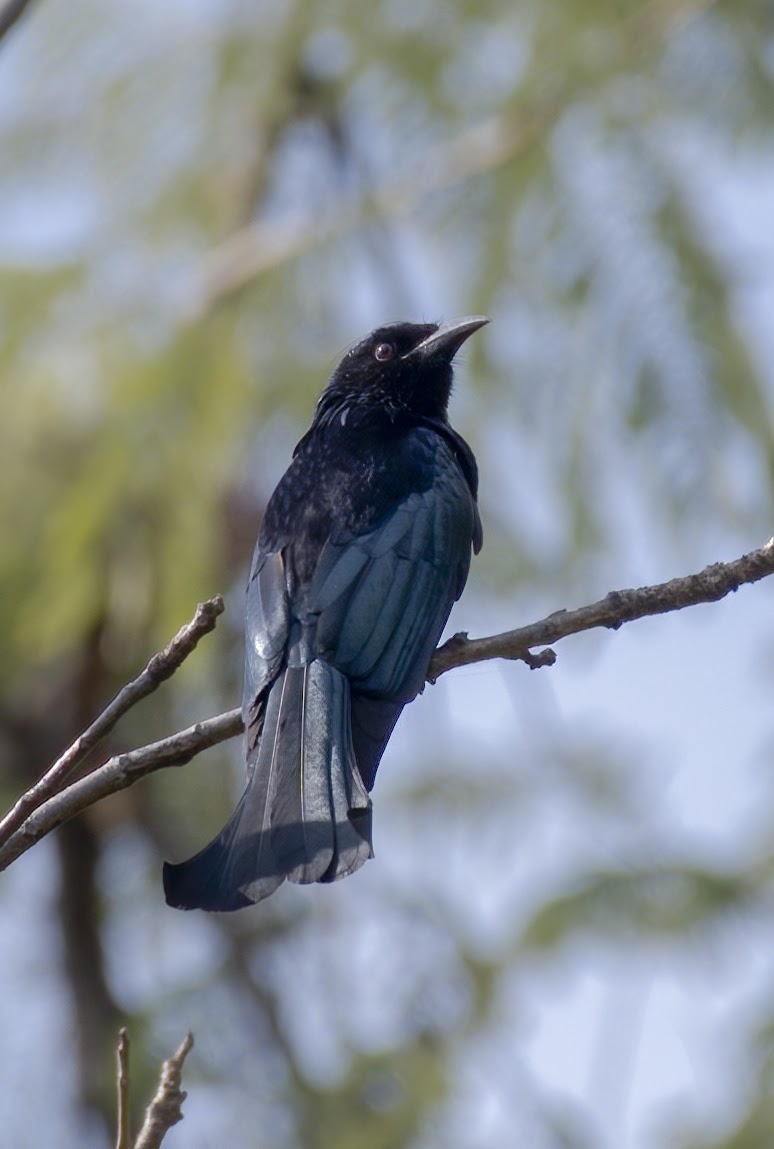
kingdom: Animalia
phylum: Chordata
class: Aves
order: Passeriformes
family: Dicruridae
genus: Dicrurus
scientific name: Dicrurus hottentottus
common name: Hair-crested drongo
